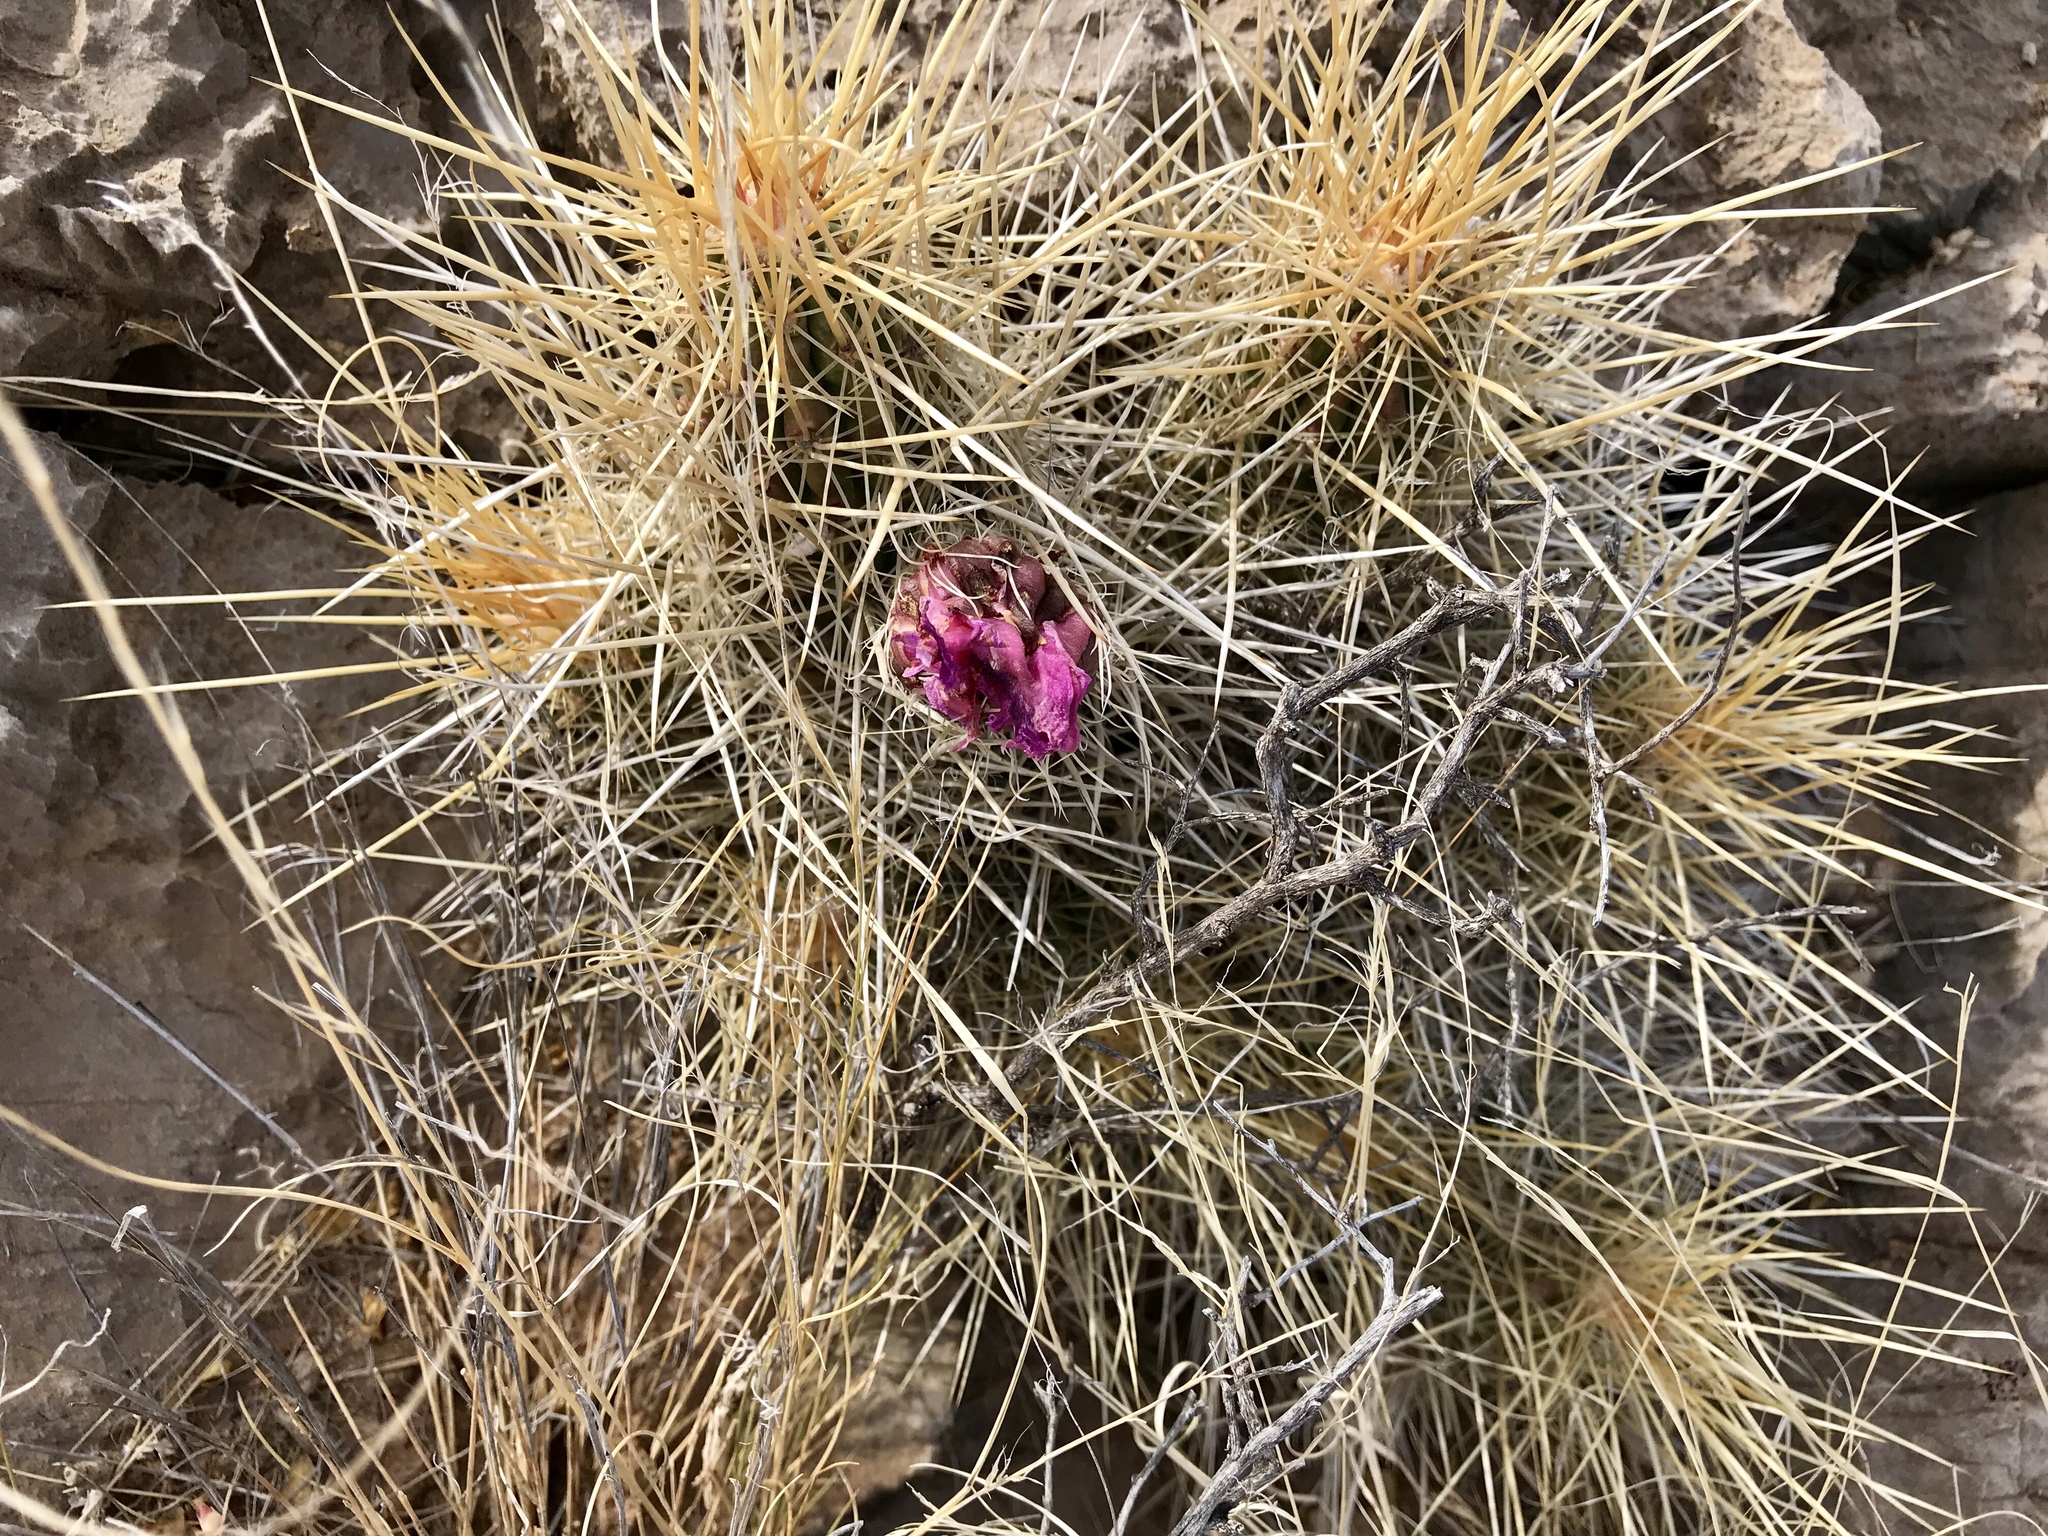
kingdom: Plantae
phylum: Tracheophyta
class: Magnoliopsida
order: Caryophyllales
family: Cactaceae
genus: Echinocereus
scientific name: Echinocereus stramineus
